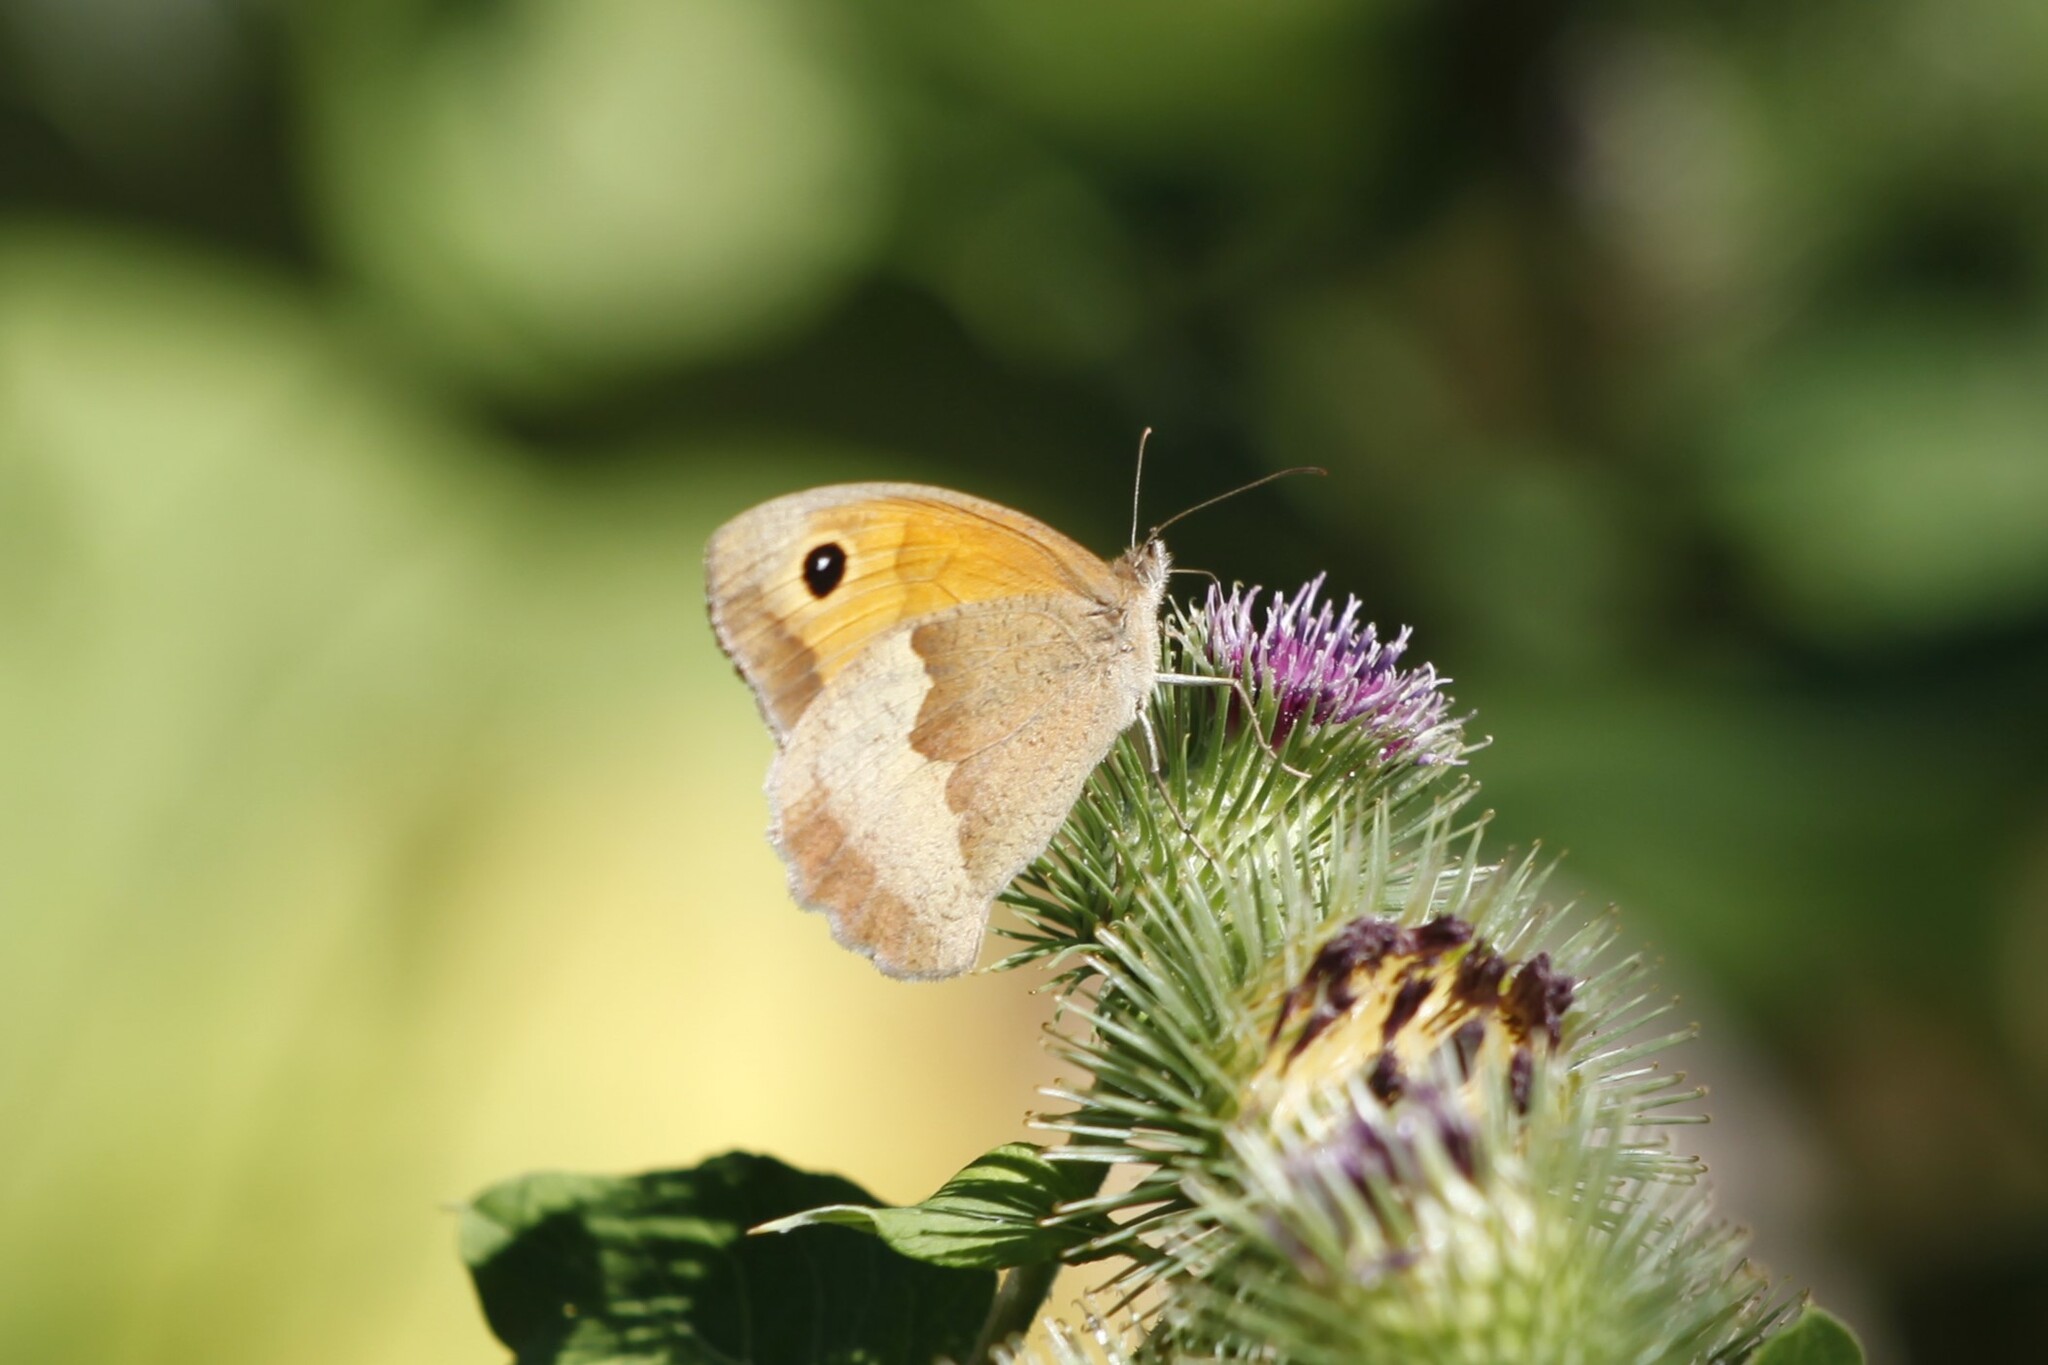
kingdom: Animalia
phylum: Arthropoda
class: Insecta
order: Lepidoptera
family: Nymphalidae
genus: Maniola
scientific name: Maniola jurtina
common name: Meadow brown
